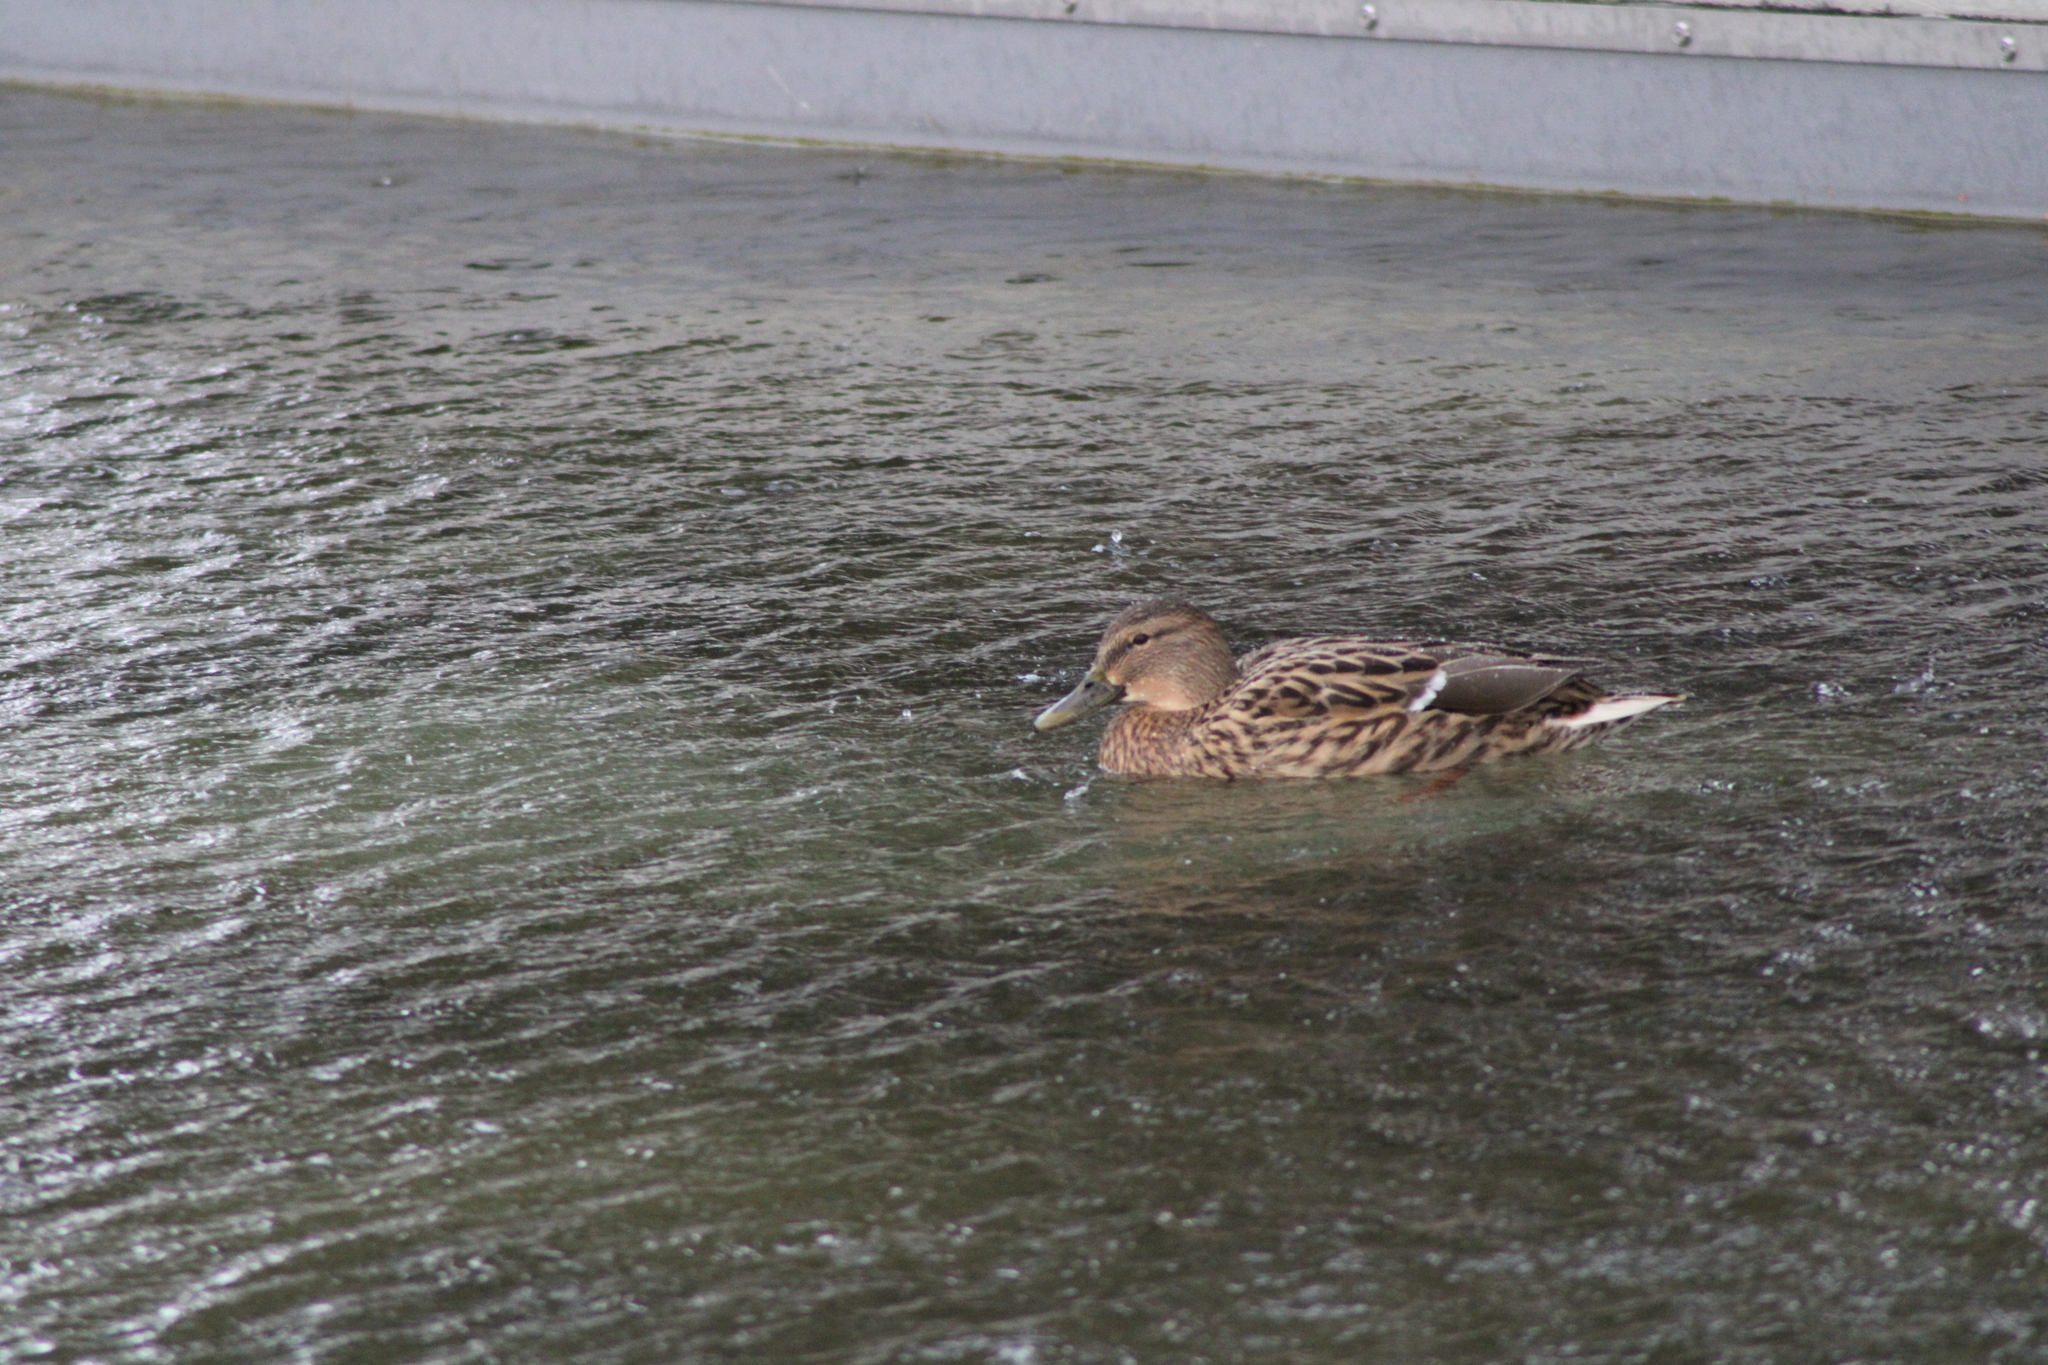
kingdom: Animalia
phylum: Chordata
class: Aves
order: Anseriformes
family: Anatidae
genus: Anas
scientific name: Anas platyrhynchos
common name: Mallard
